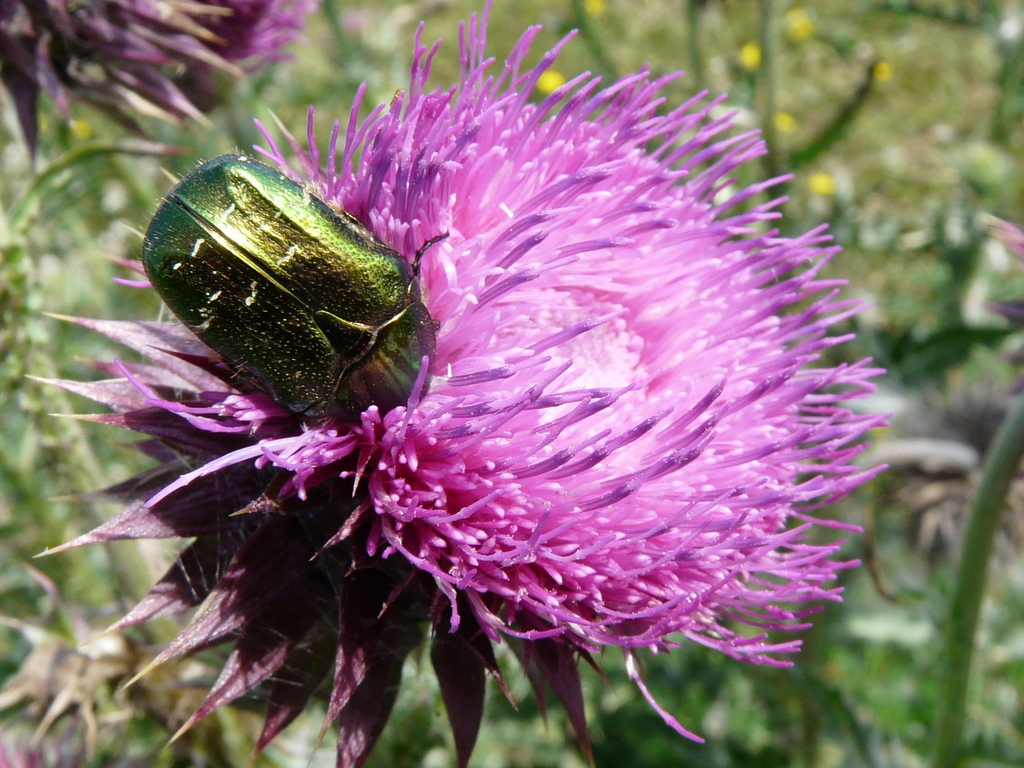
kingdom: Animalia
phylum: Arthropoda
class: Insecta
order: Coleoptera
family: Scarabaeidae
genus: Cetonia
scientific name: Cetonia aurata
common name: Rose chafer
